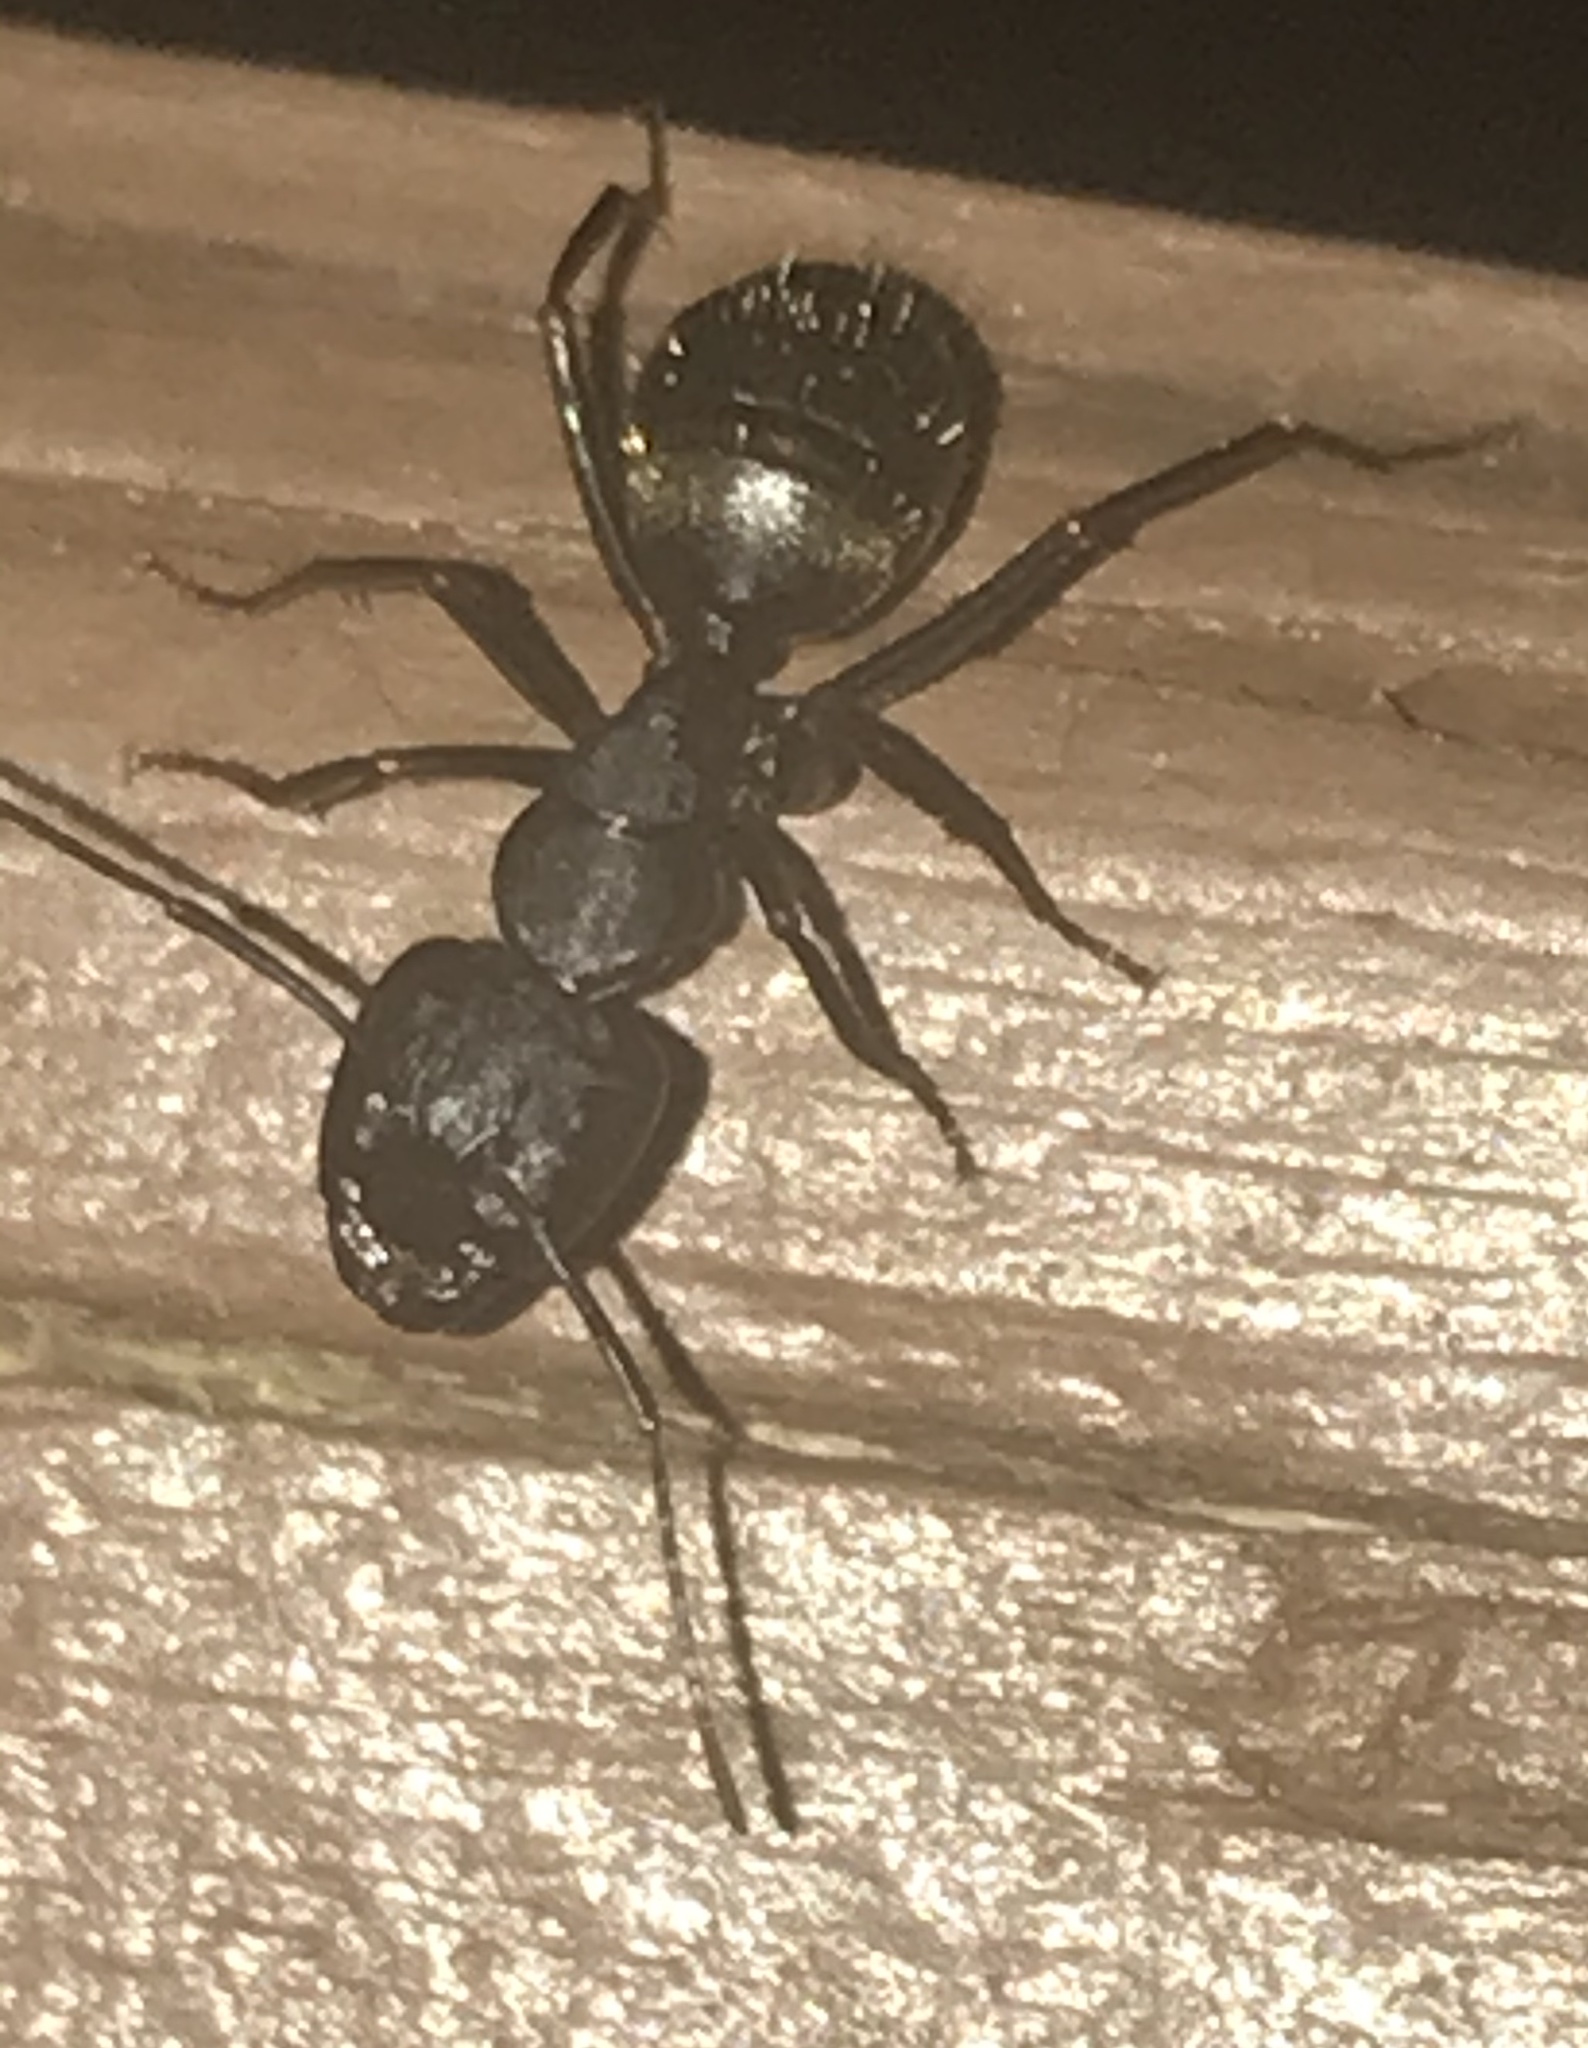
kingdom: Animalia
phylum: Arthropoda
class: Insecta
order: Hymenoptera
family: Formicidae
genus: Camponotus
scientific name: Camponotus pennsylvanicus
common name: Black carpenter ant
